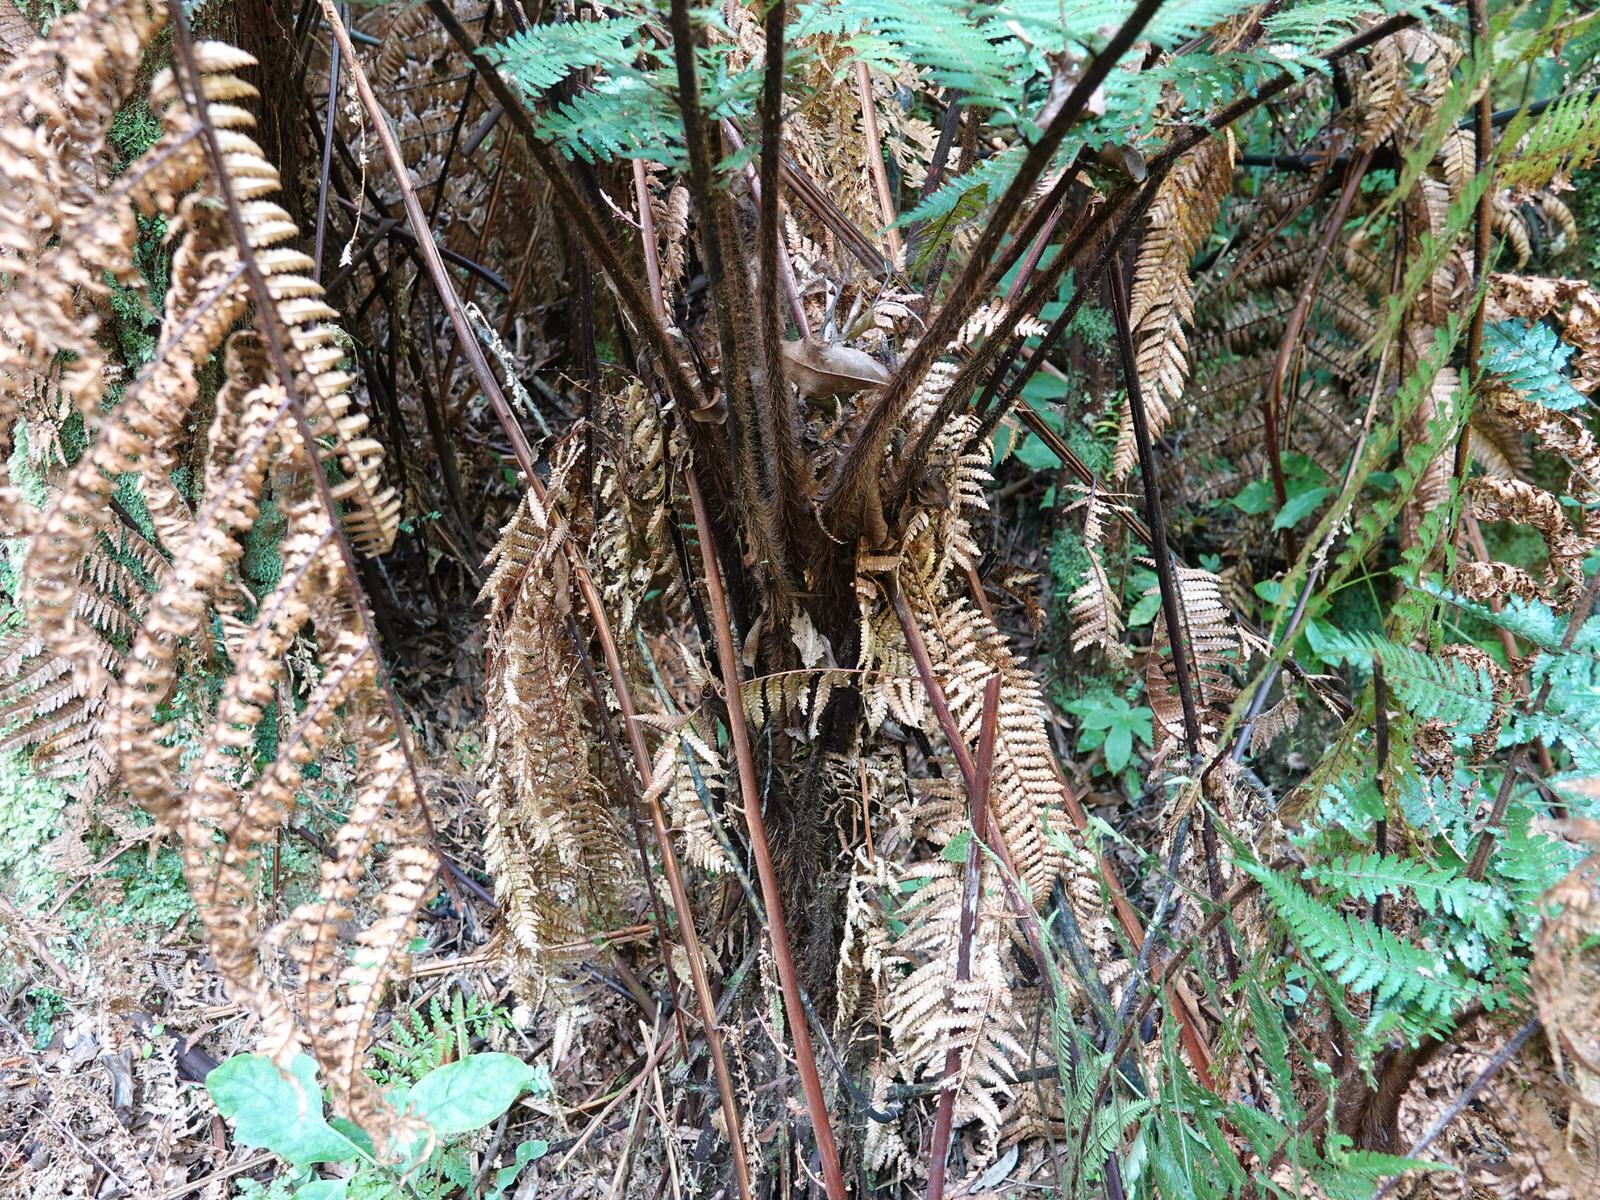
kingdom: Plantae
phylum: Tracheophyta
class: Polypodiopsida
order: Cyatheales
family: Dicksoniaceae
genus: Dicksonia
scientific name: Dicksonia squarrosa
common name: Hard treefern
